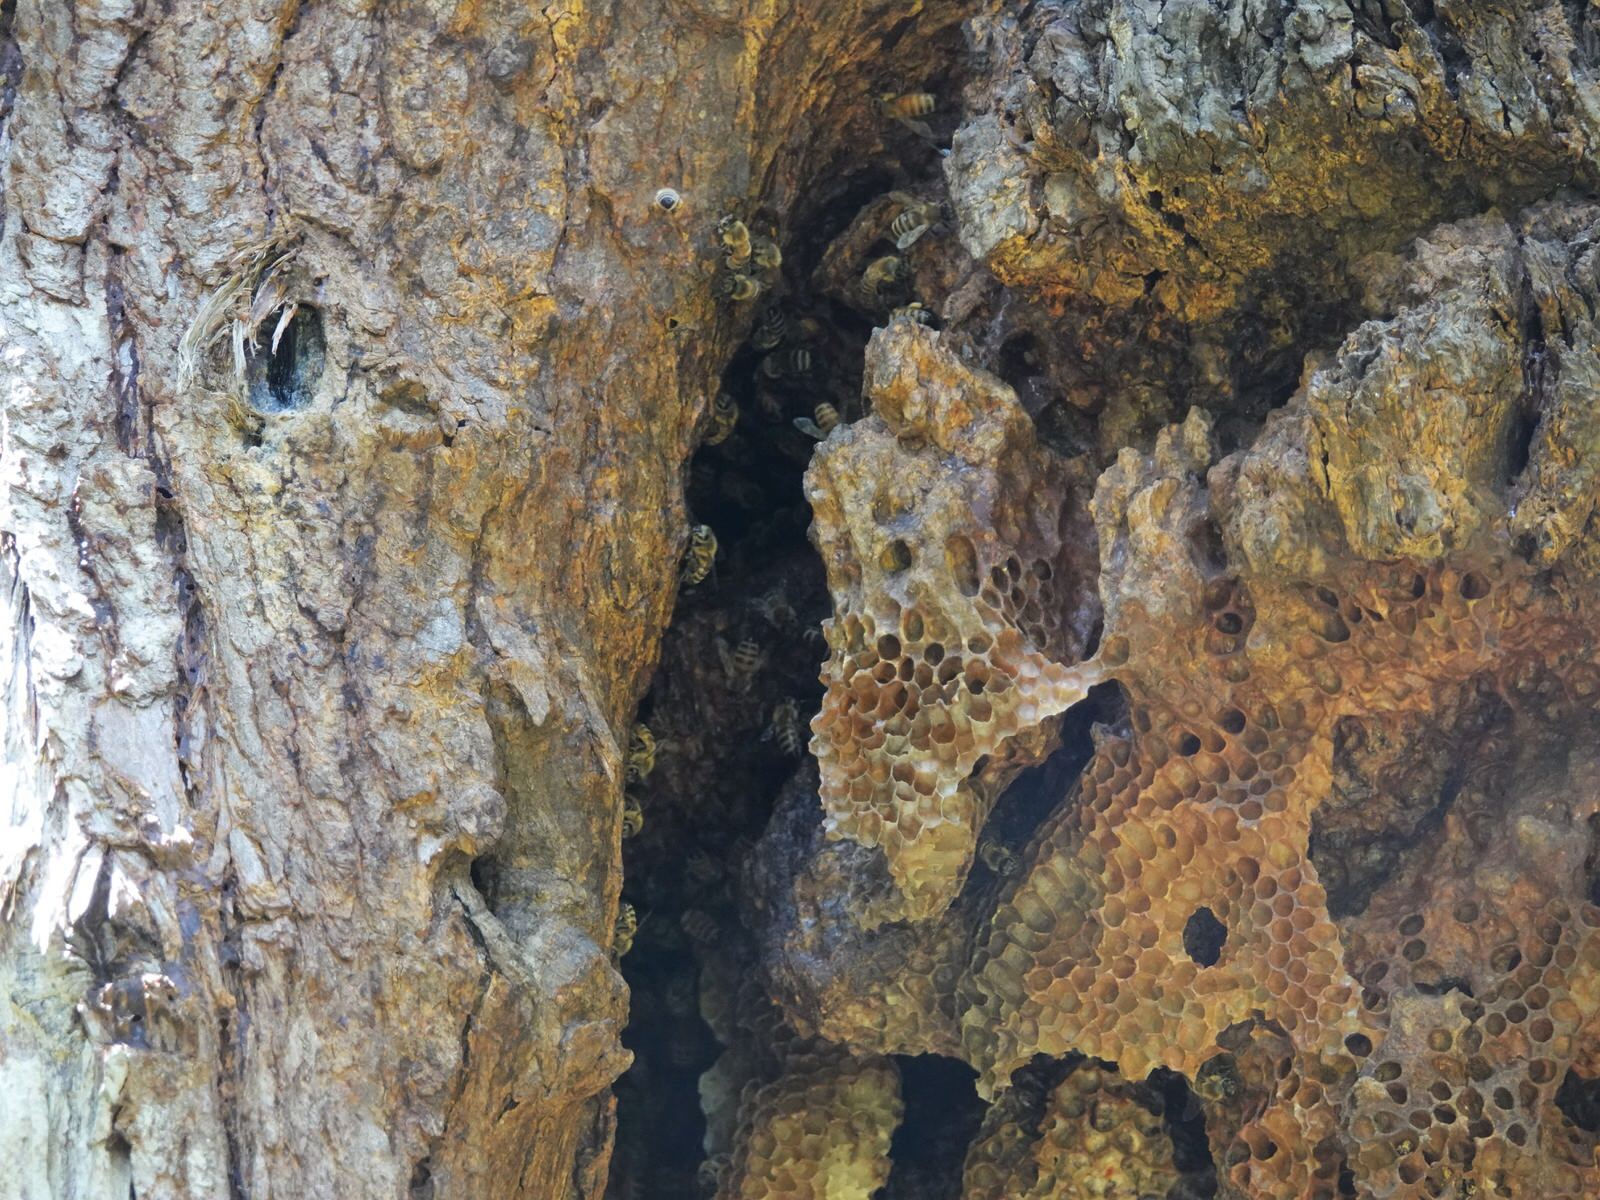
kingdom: Animalia
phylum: Arthropoda
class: Insecta
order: Hymenoptera
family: Apidae
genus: Apis
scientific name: Apis mellifera
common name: Honey bee
